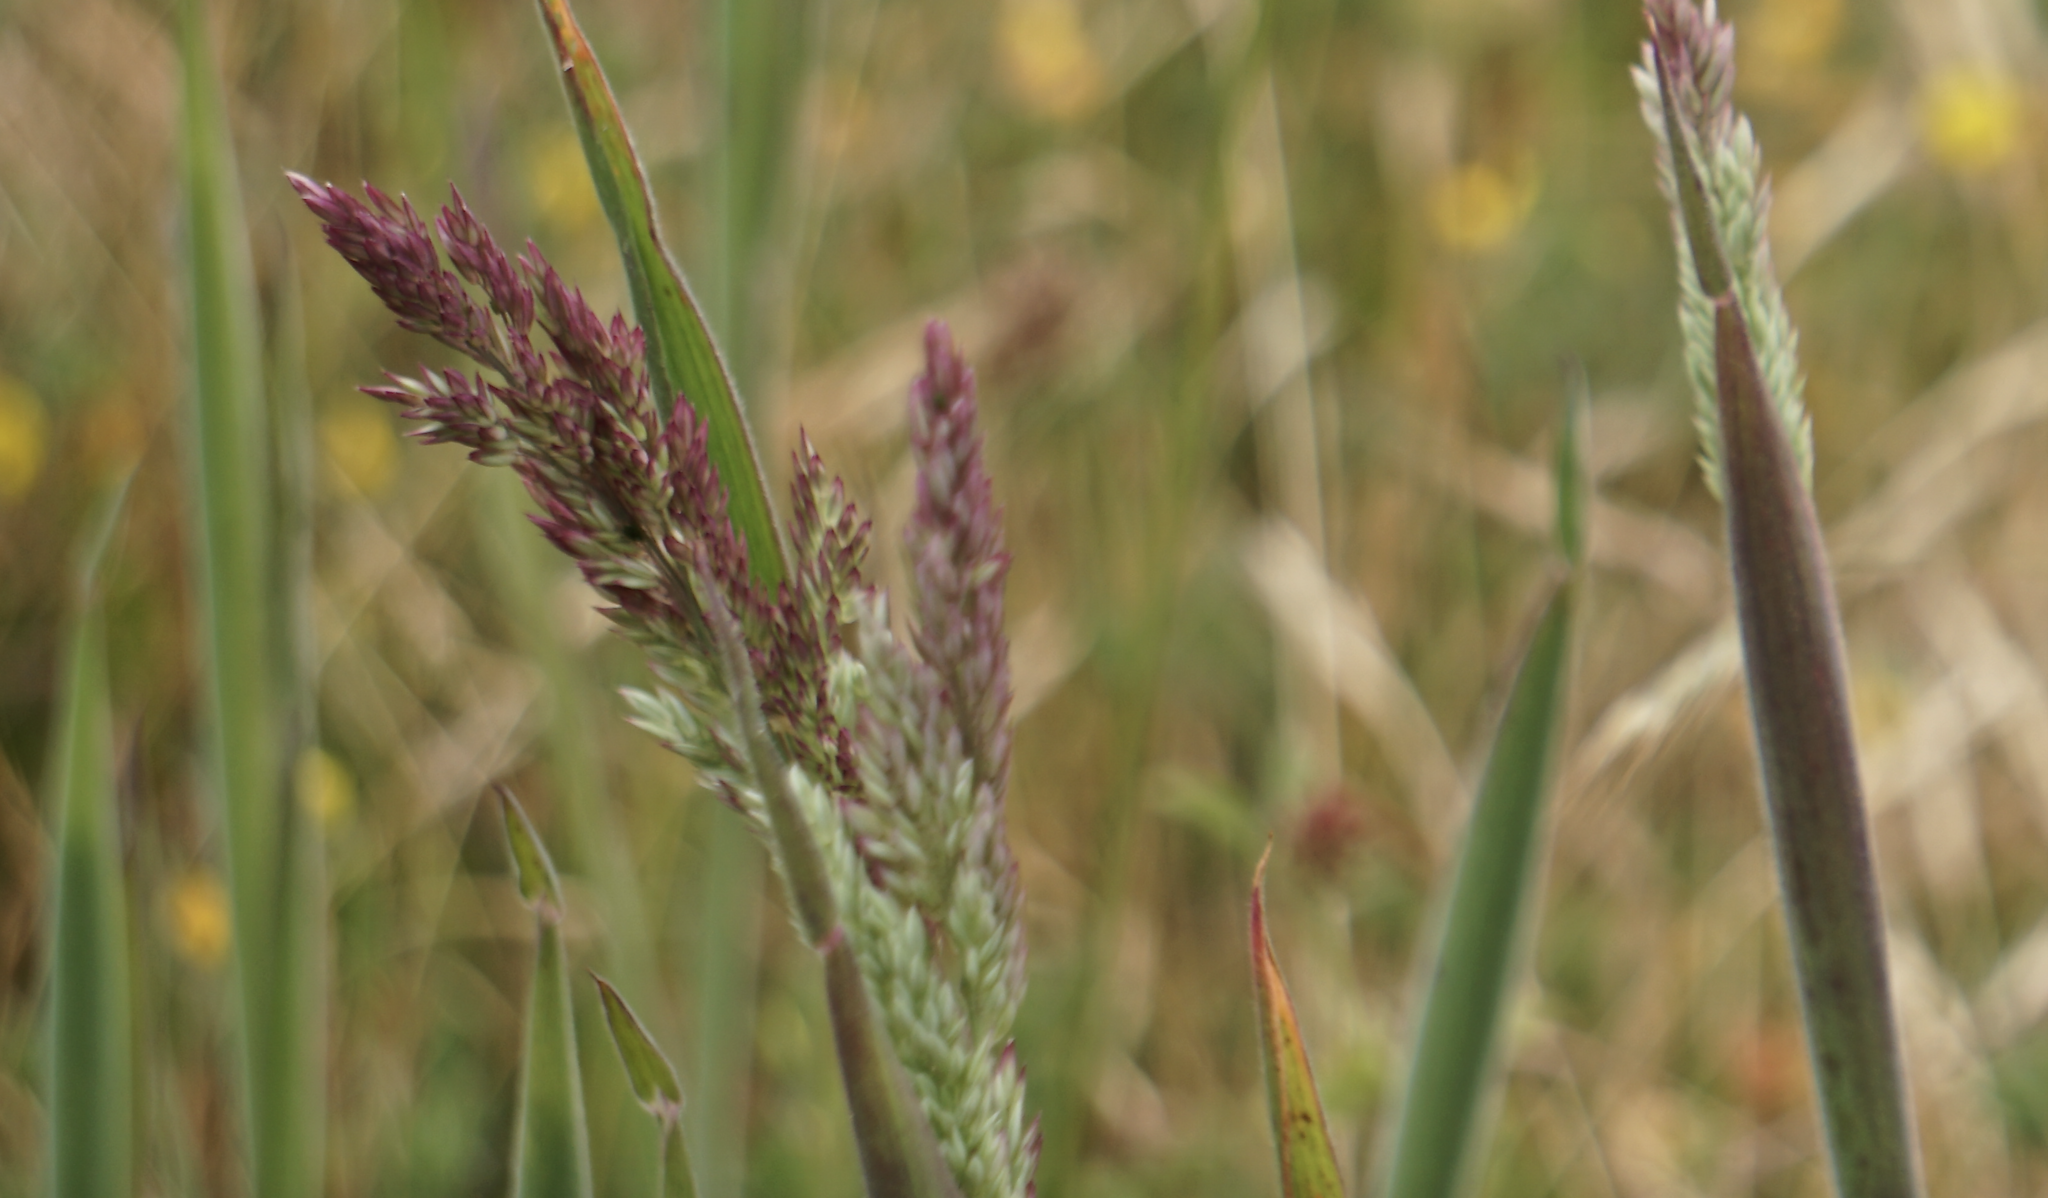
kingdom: Plantae
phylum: Tracheophyta
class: Liliopsida
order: Poales
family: Poaceae
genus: Holcus
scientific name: Holcus lanatus
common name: Yorkshire-fog
